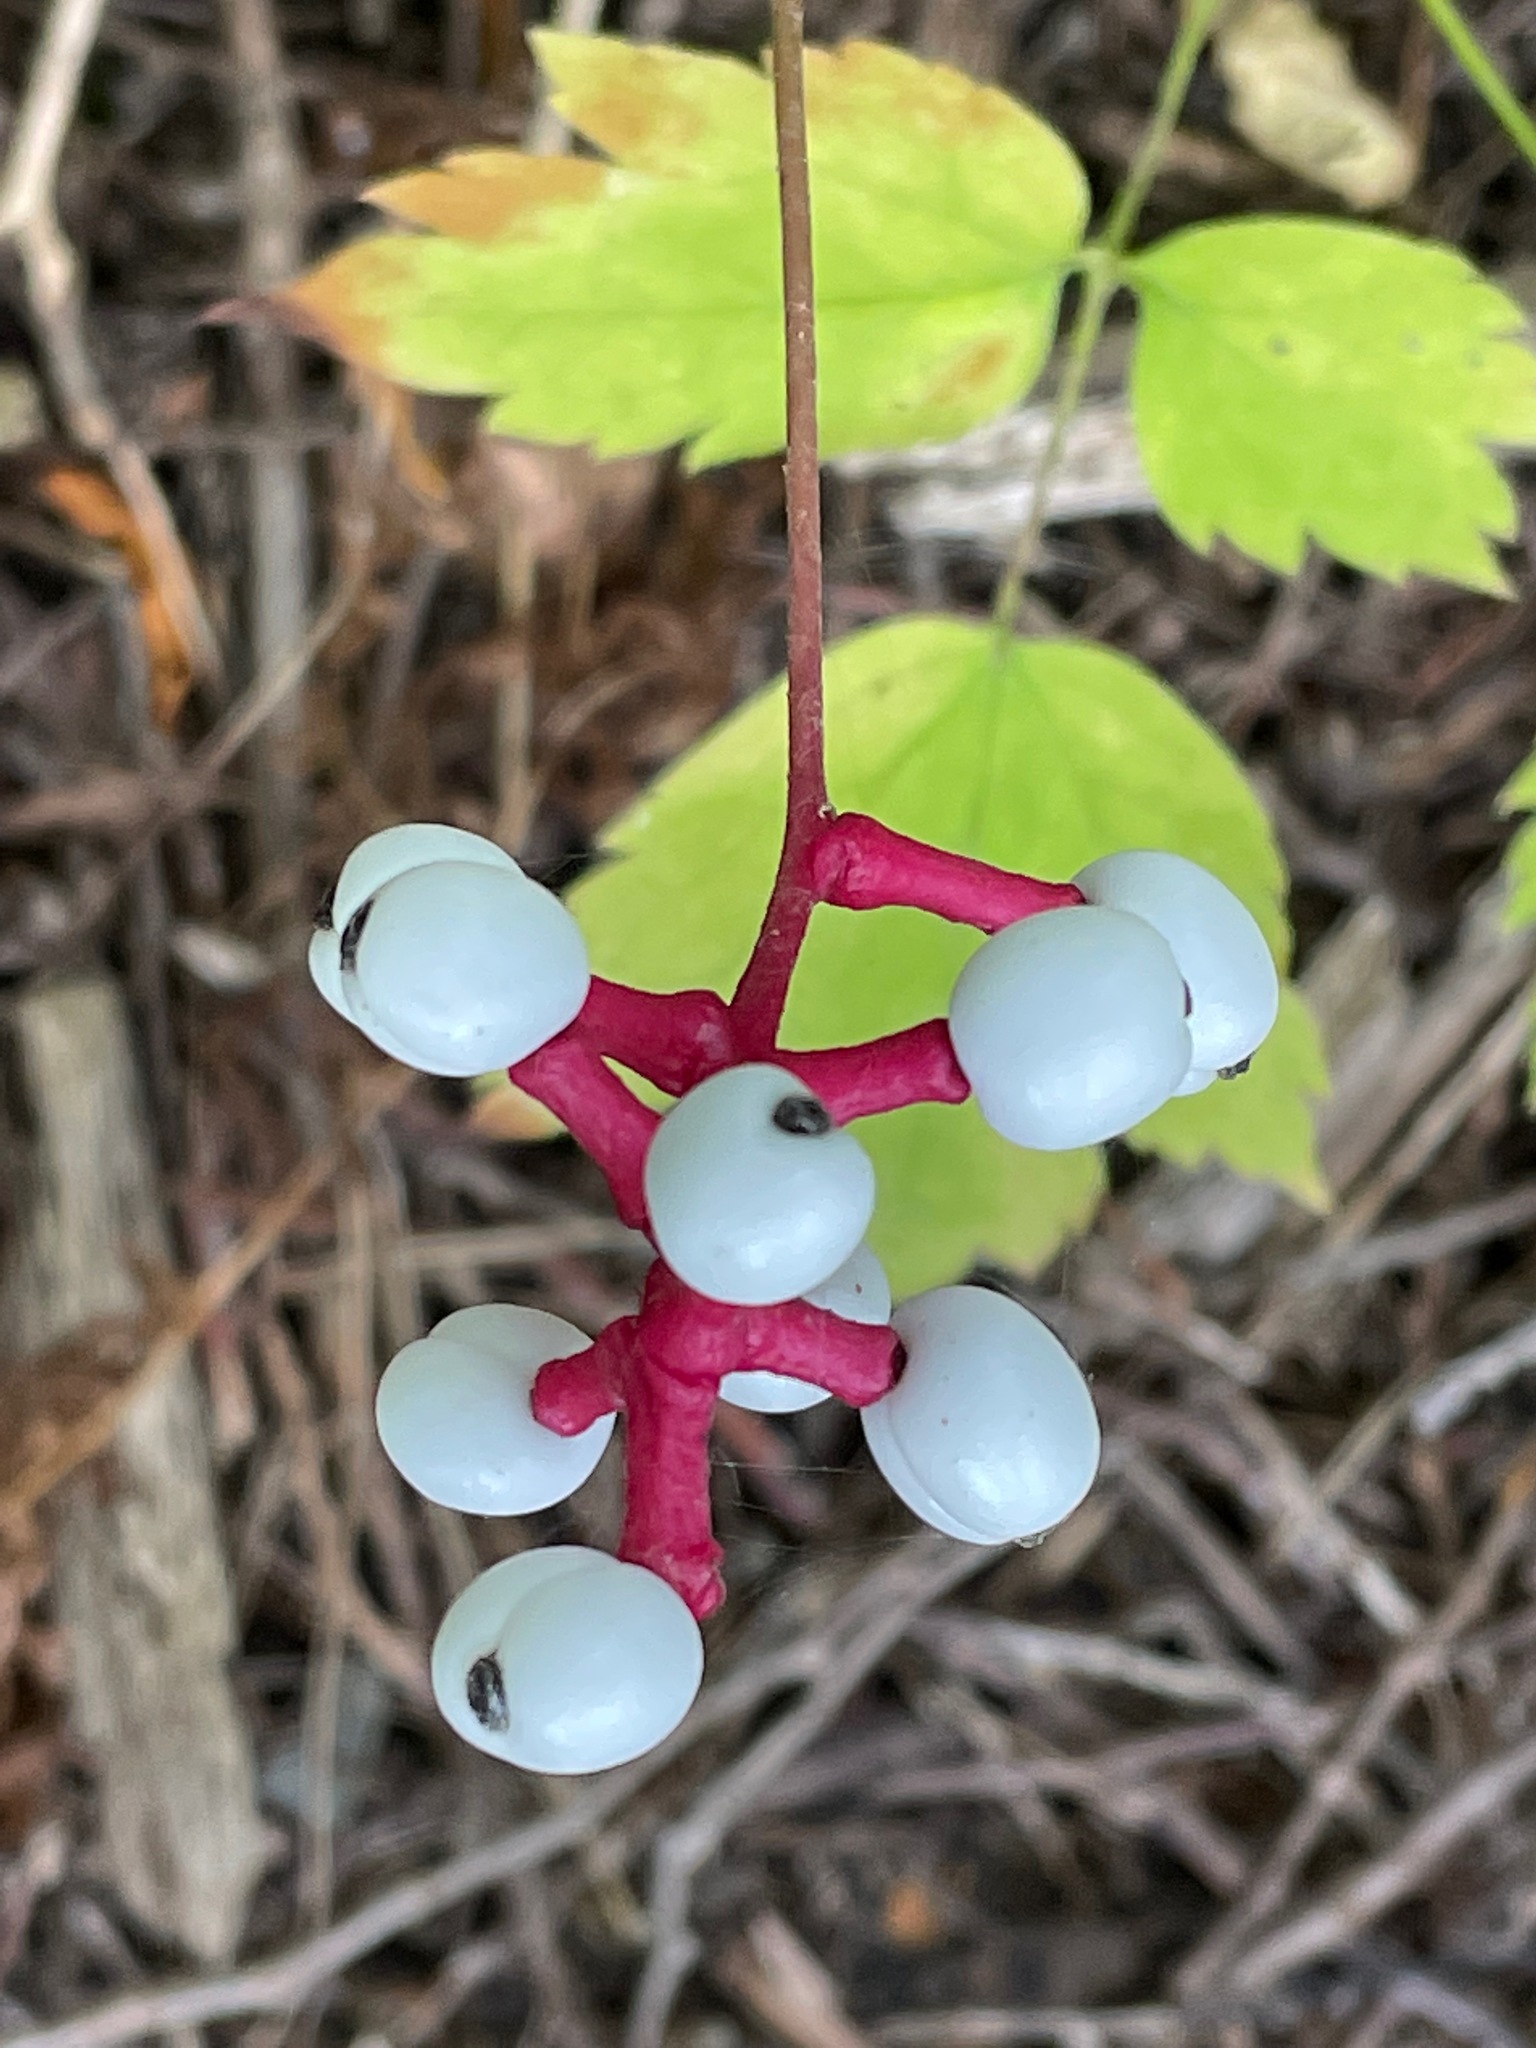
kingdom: Plantae
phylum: Tracheophyta
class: Magnoliopsida
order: Ranunculales
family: Ranunculaceae
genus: Actaea
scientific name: Actaea pachypoda
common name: Doll's-eyes
